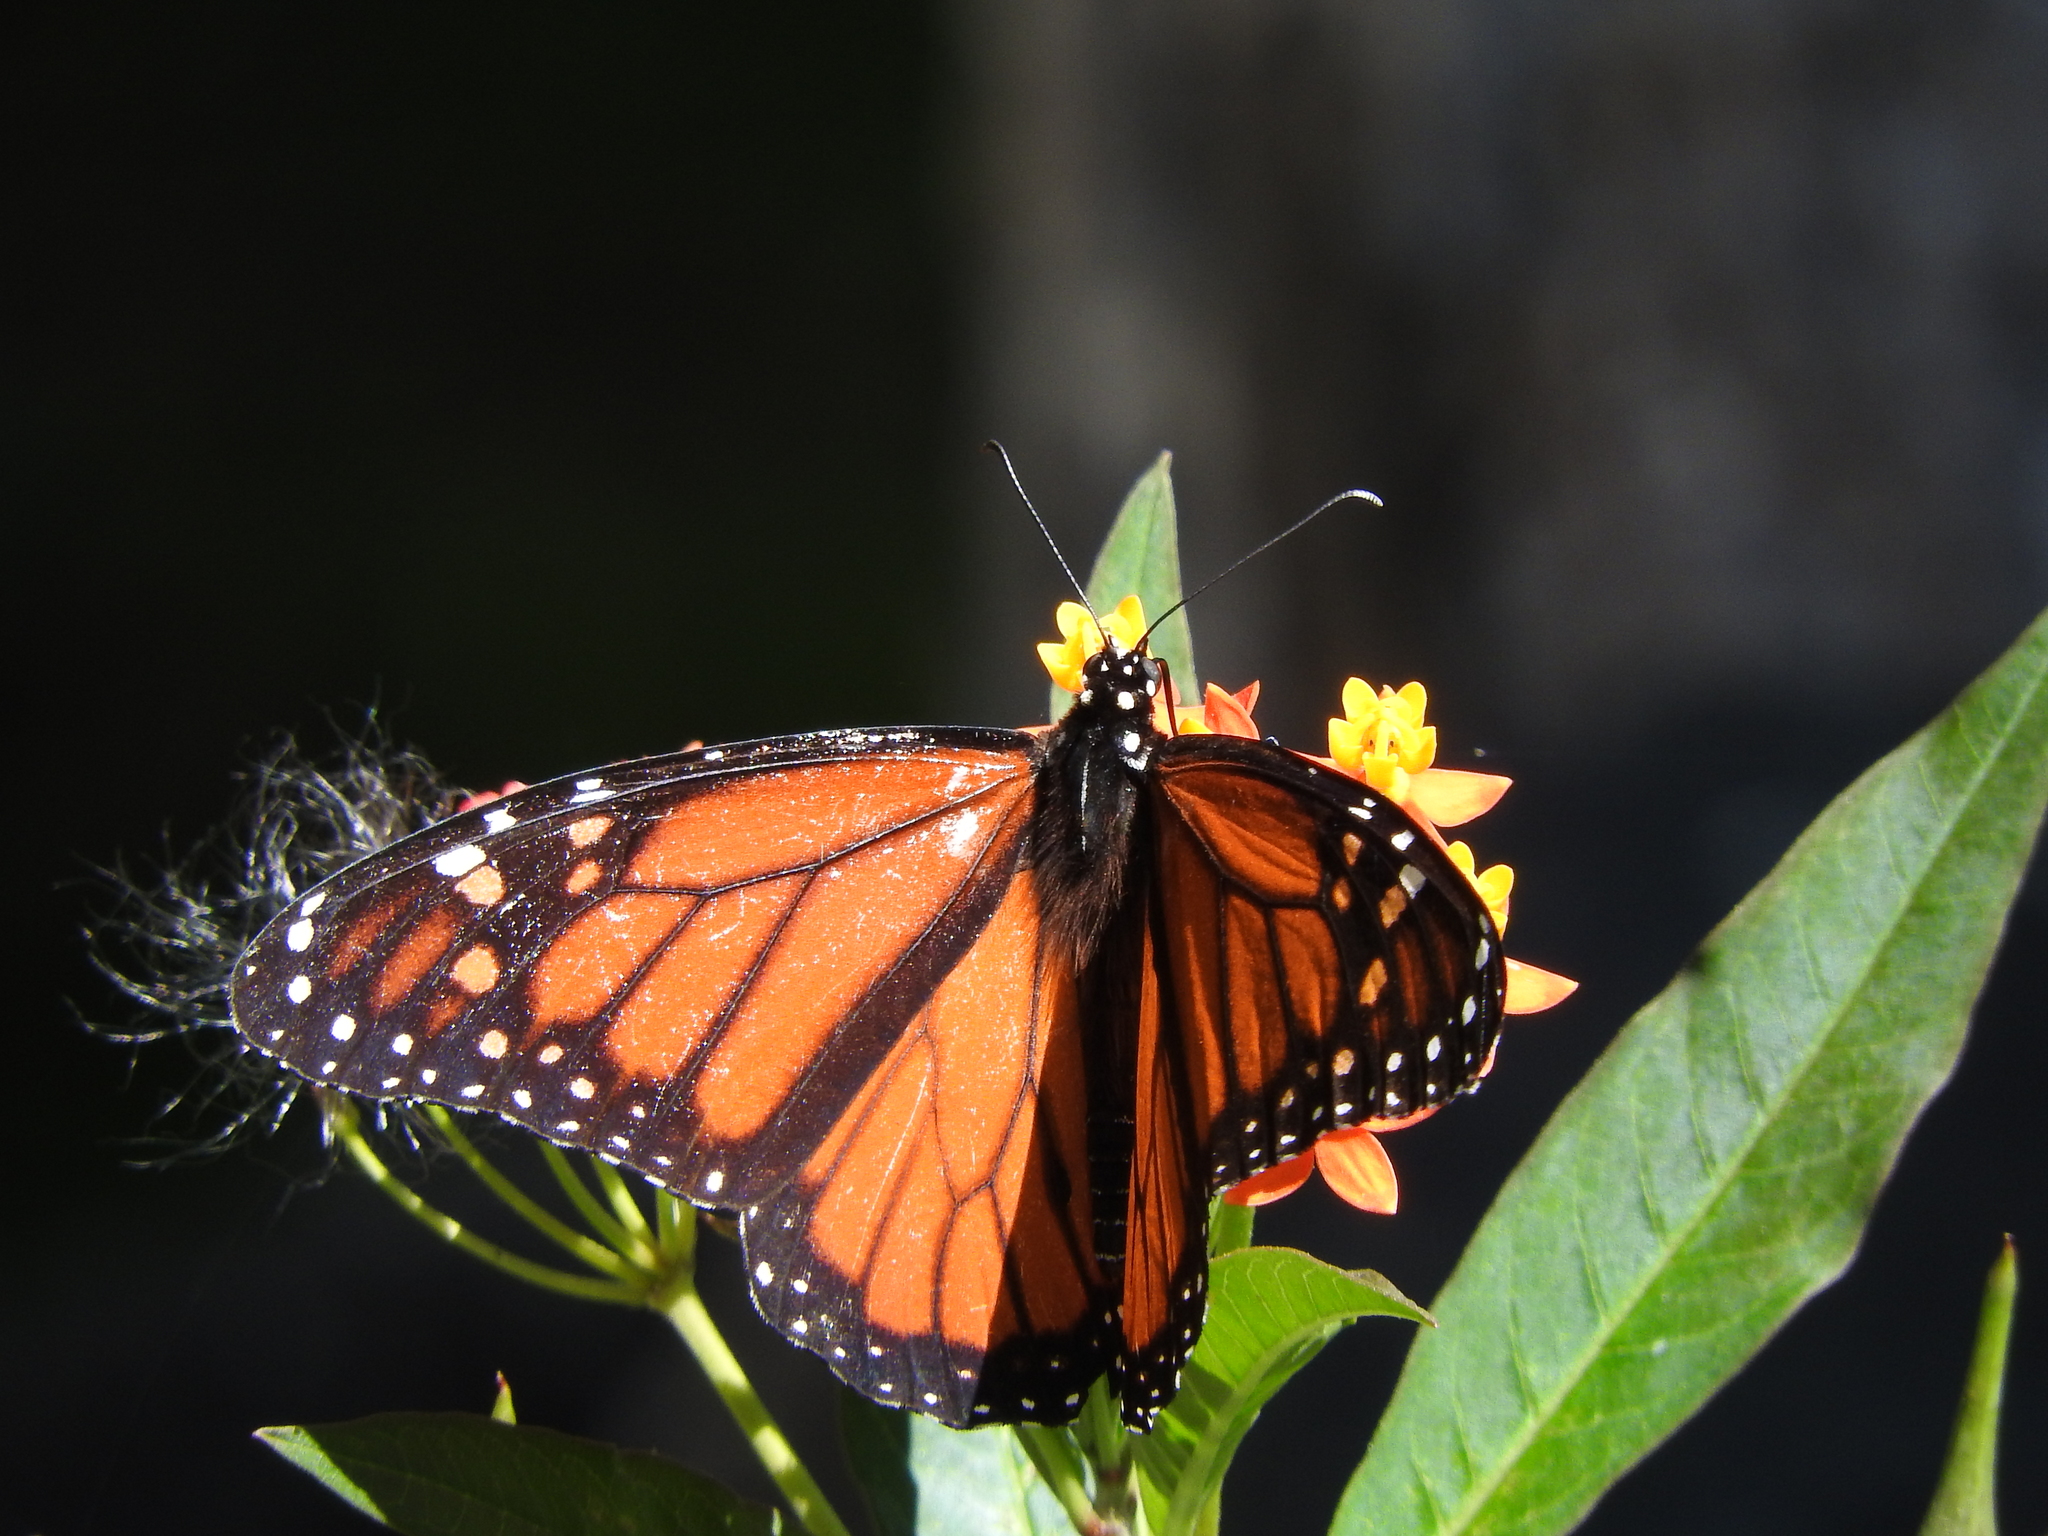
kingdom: Animalia
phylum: Arthropoda
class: Insecta
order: Lepidoptera
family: Nymphalidae
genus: Danaus
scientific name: Danaus plexippus
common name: Monarch
